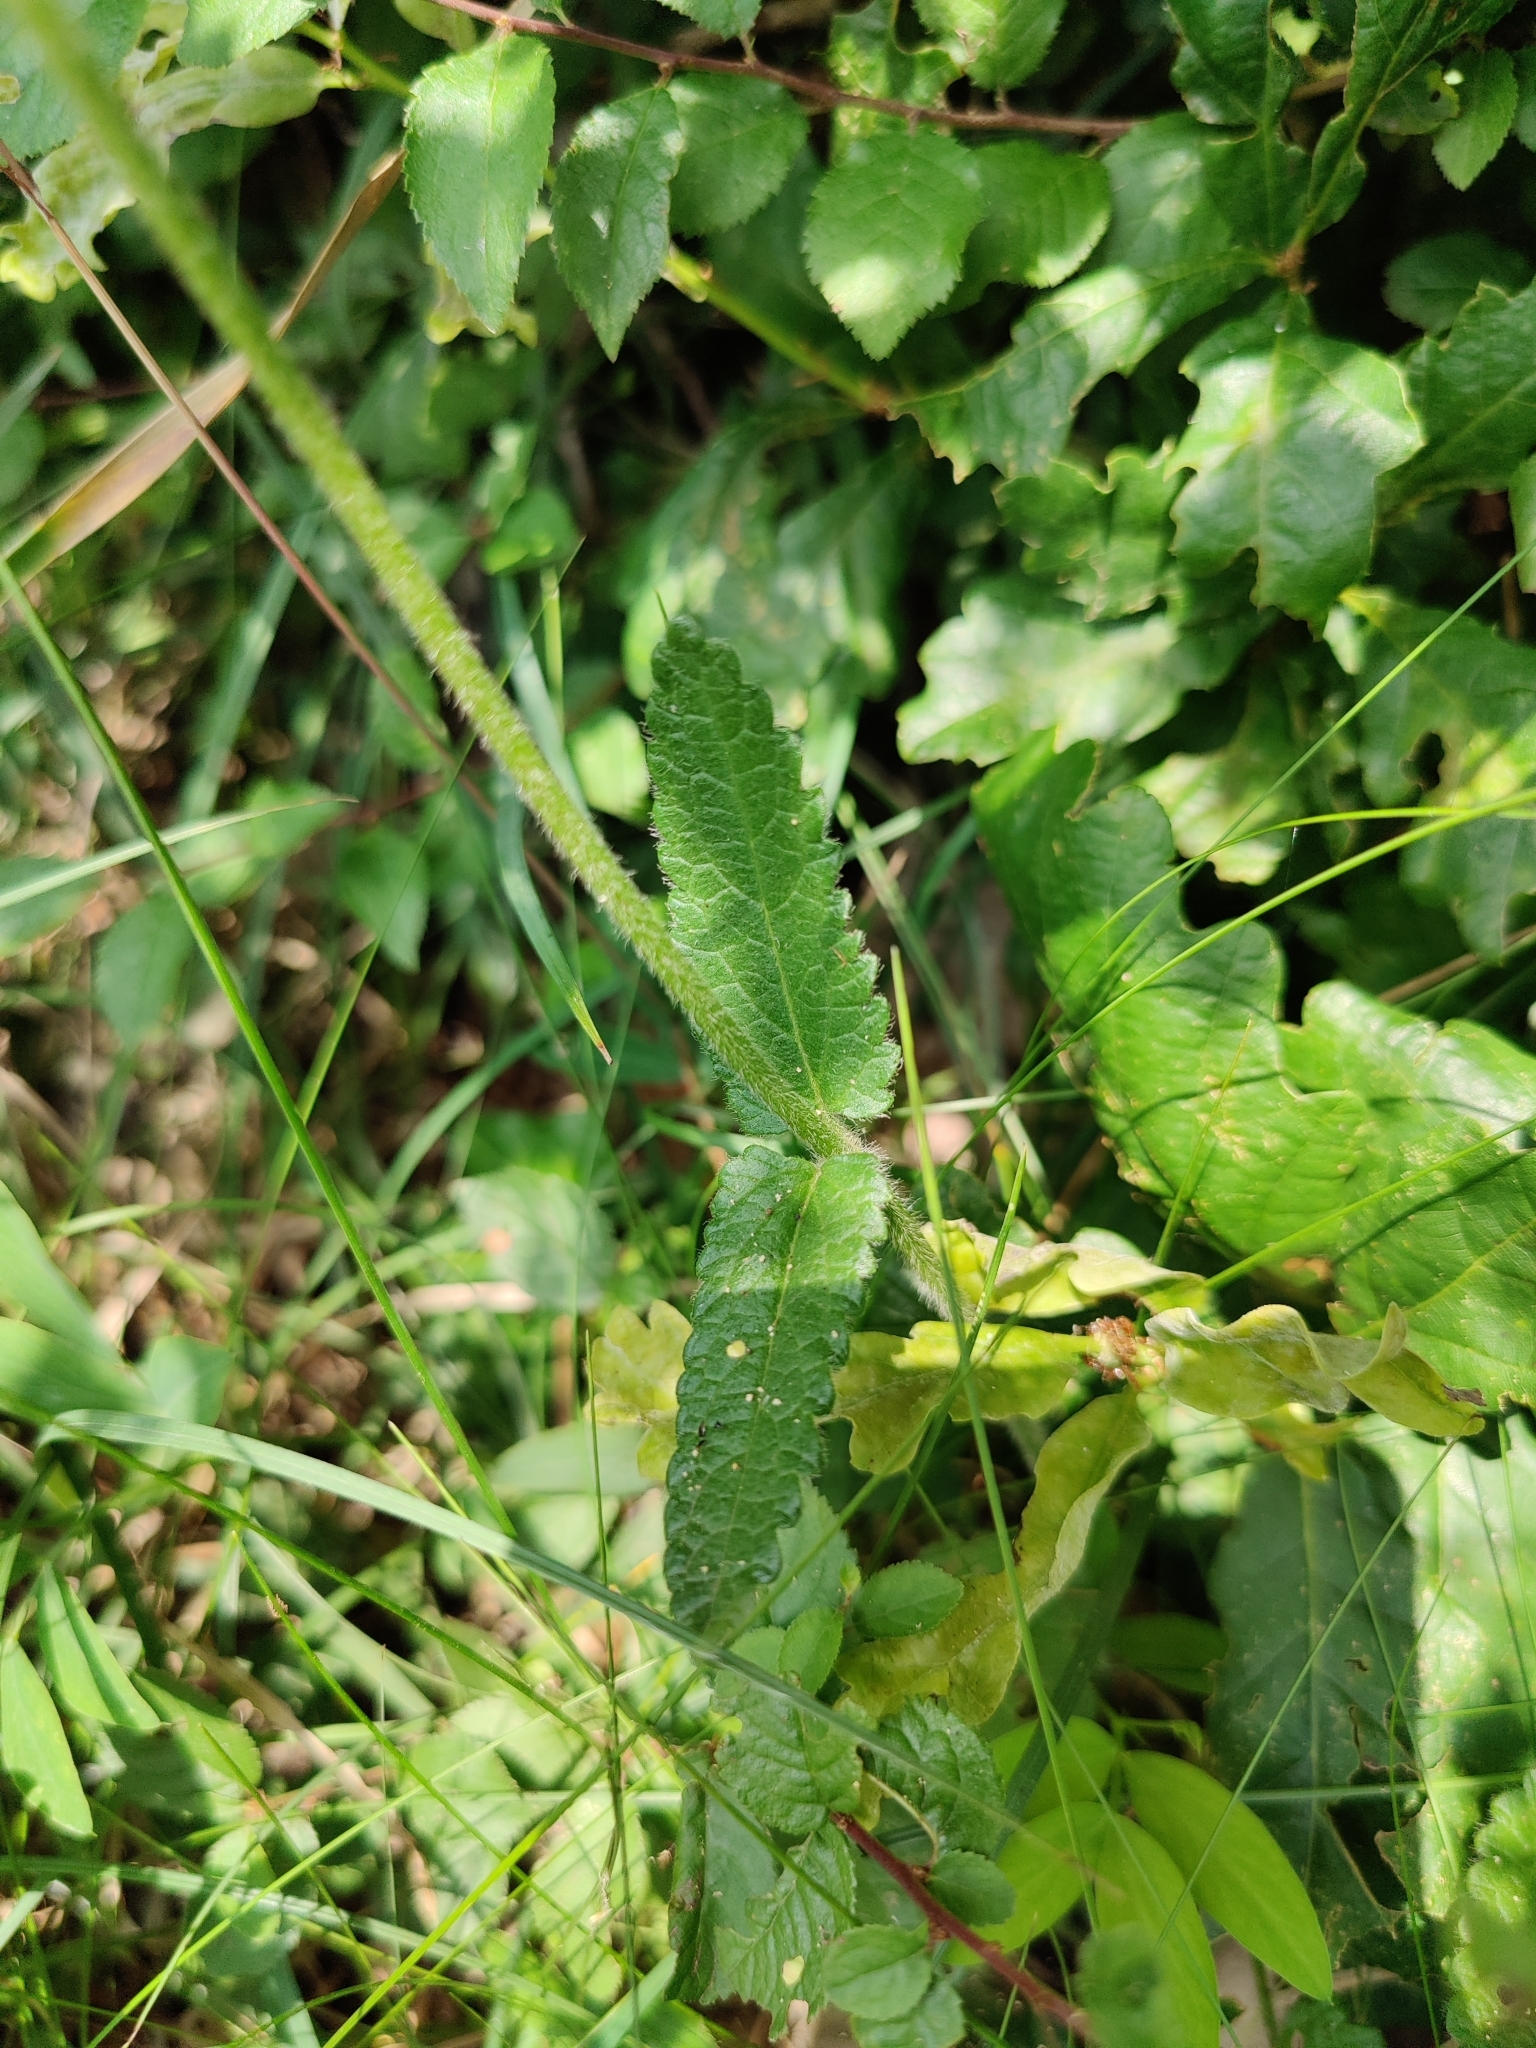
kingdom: Plantae
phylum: Tracheophyta
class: Magnoliopsida
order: Lamiales
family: Lamiaceae
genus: Betonica
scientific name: Betonica officinalis
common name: Bishop's-wort
